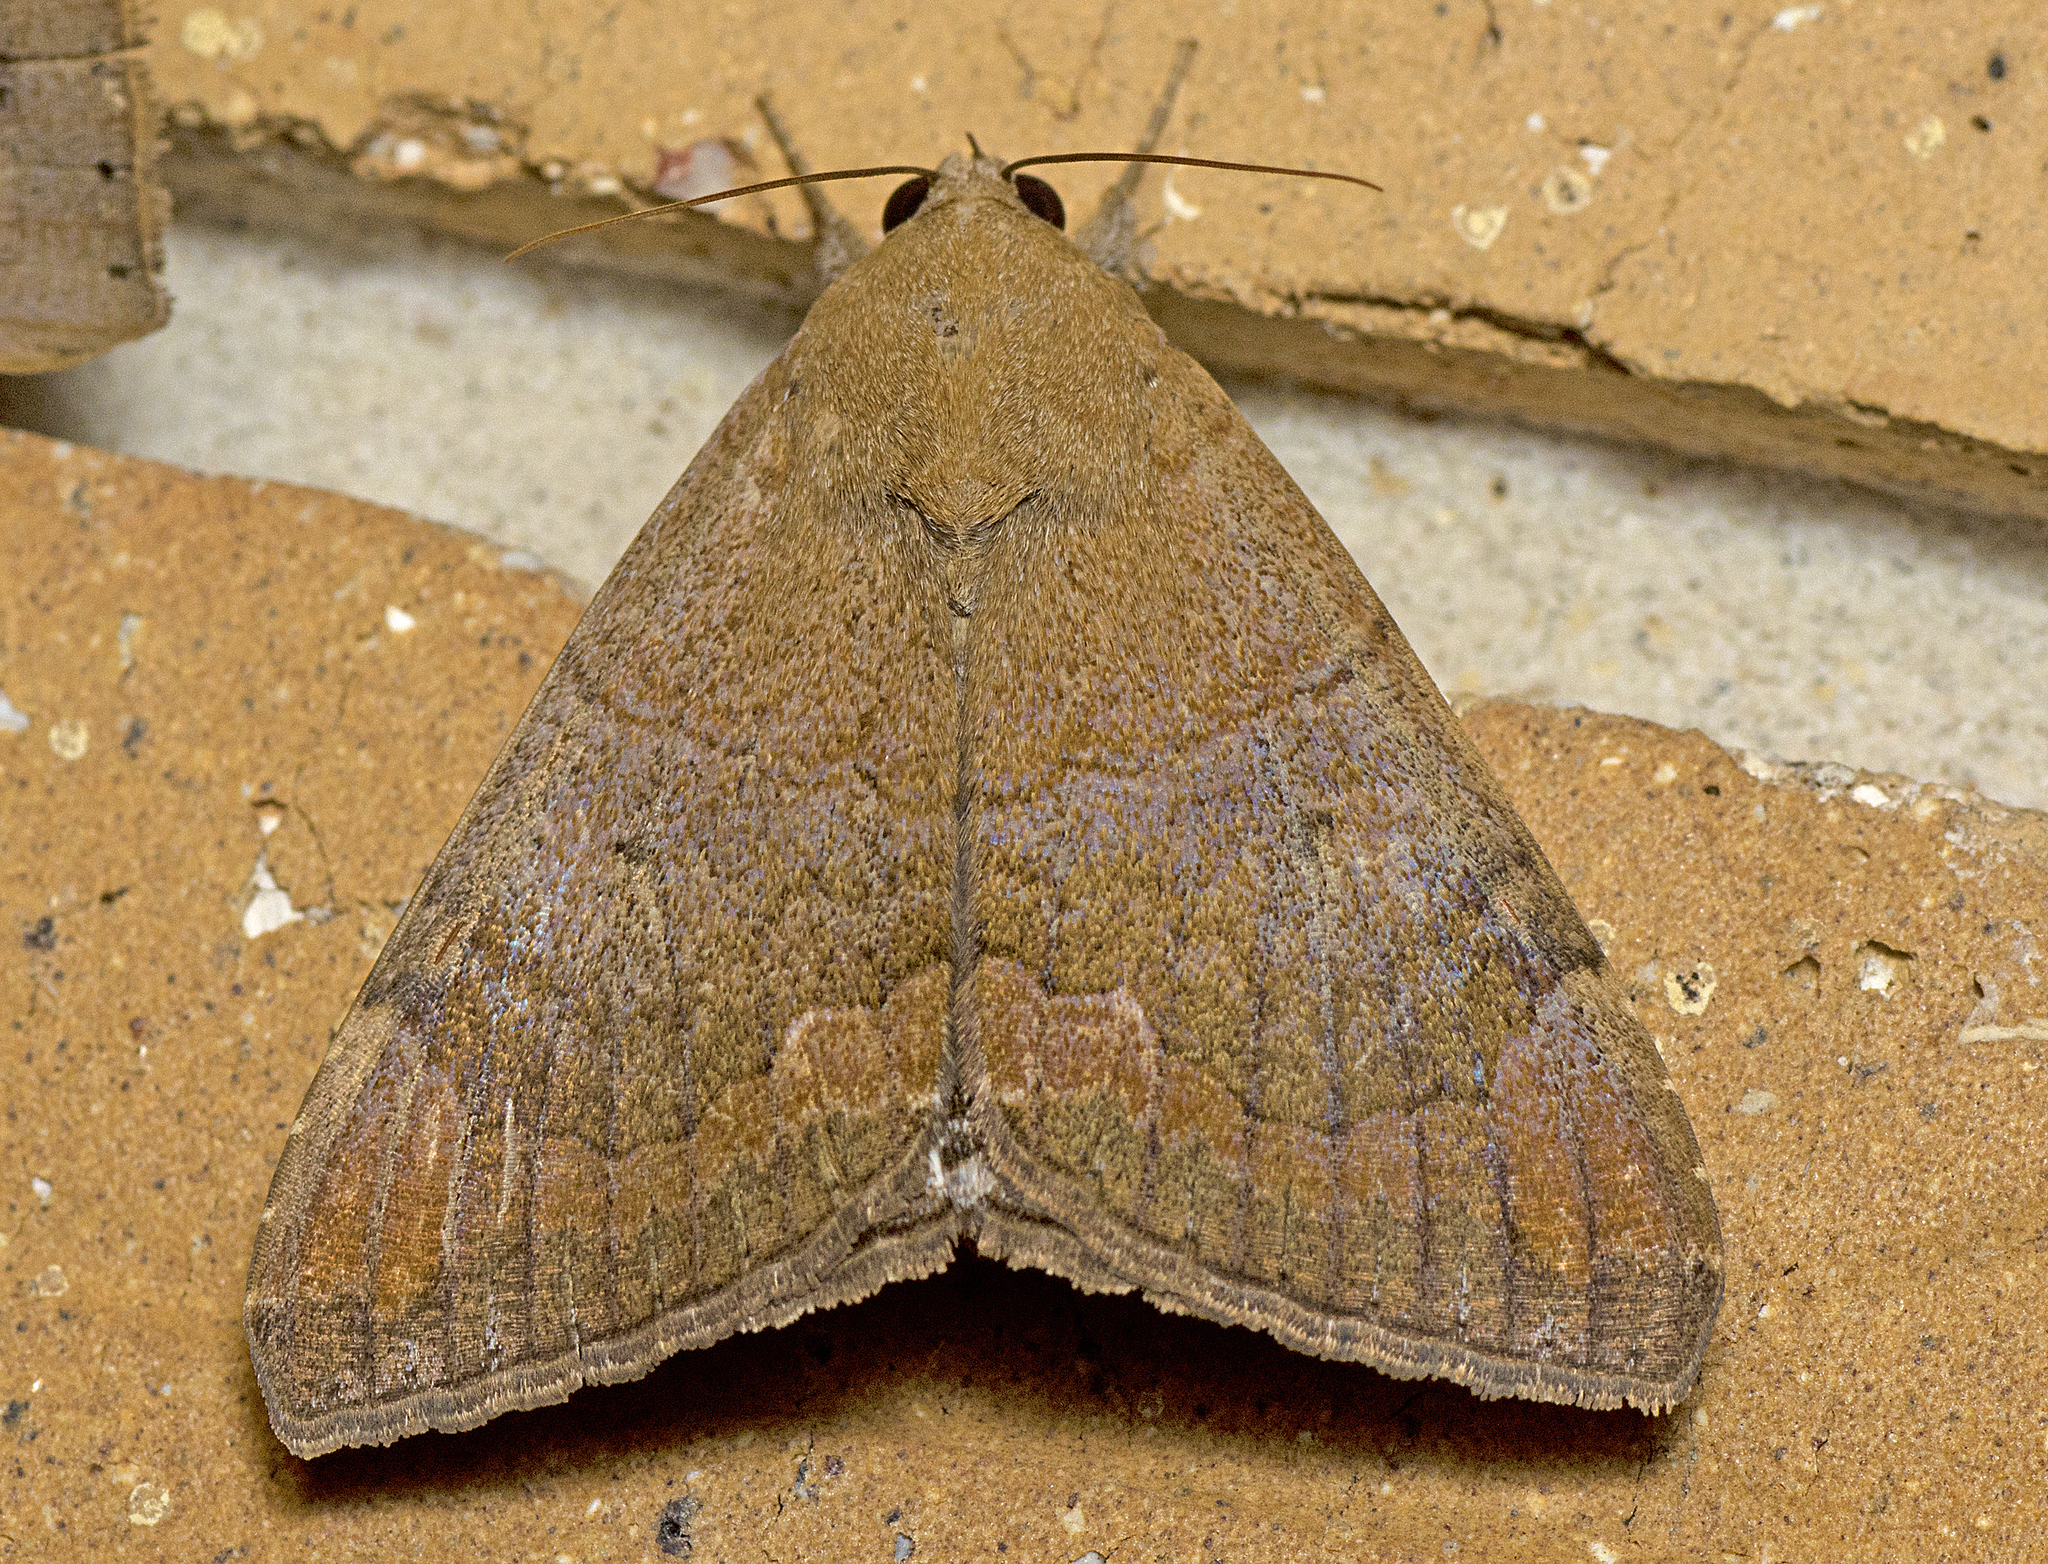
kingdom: Animalia
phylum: Arthropoda
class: Insecta
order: Lepidoptera
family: Erebidae
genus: Achaea
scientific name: Achaea janata
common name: Croton caterpillar
